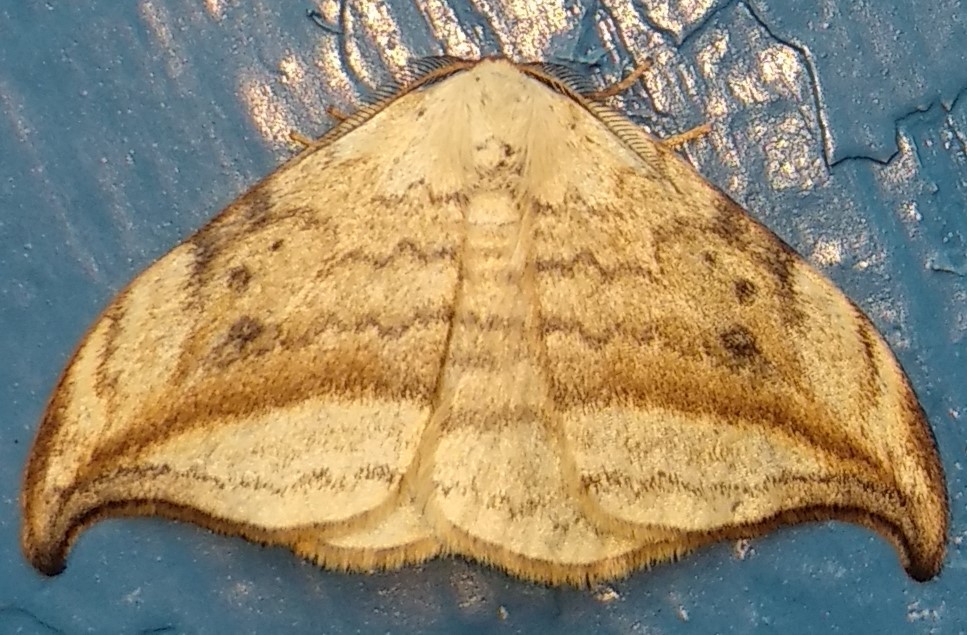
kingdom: Animalia
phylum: Arthropoda
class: Insecta
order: Lepidoptera
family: Drepanidae
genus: Drepana
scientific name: Drepana arcuata
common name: Arched hooktip moth
